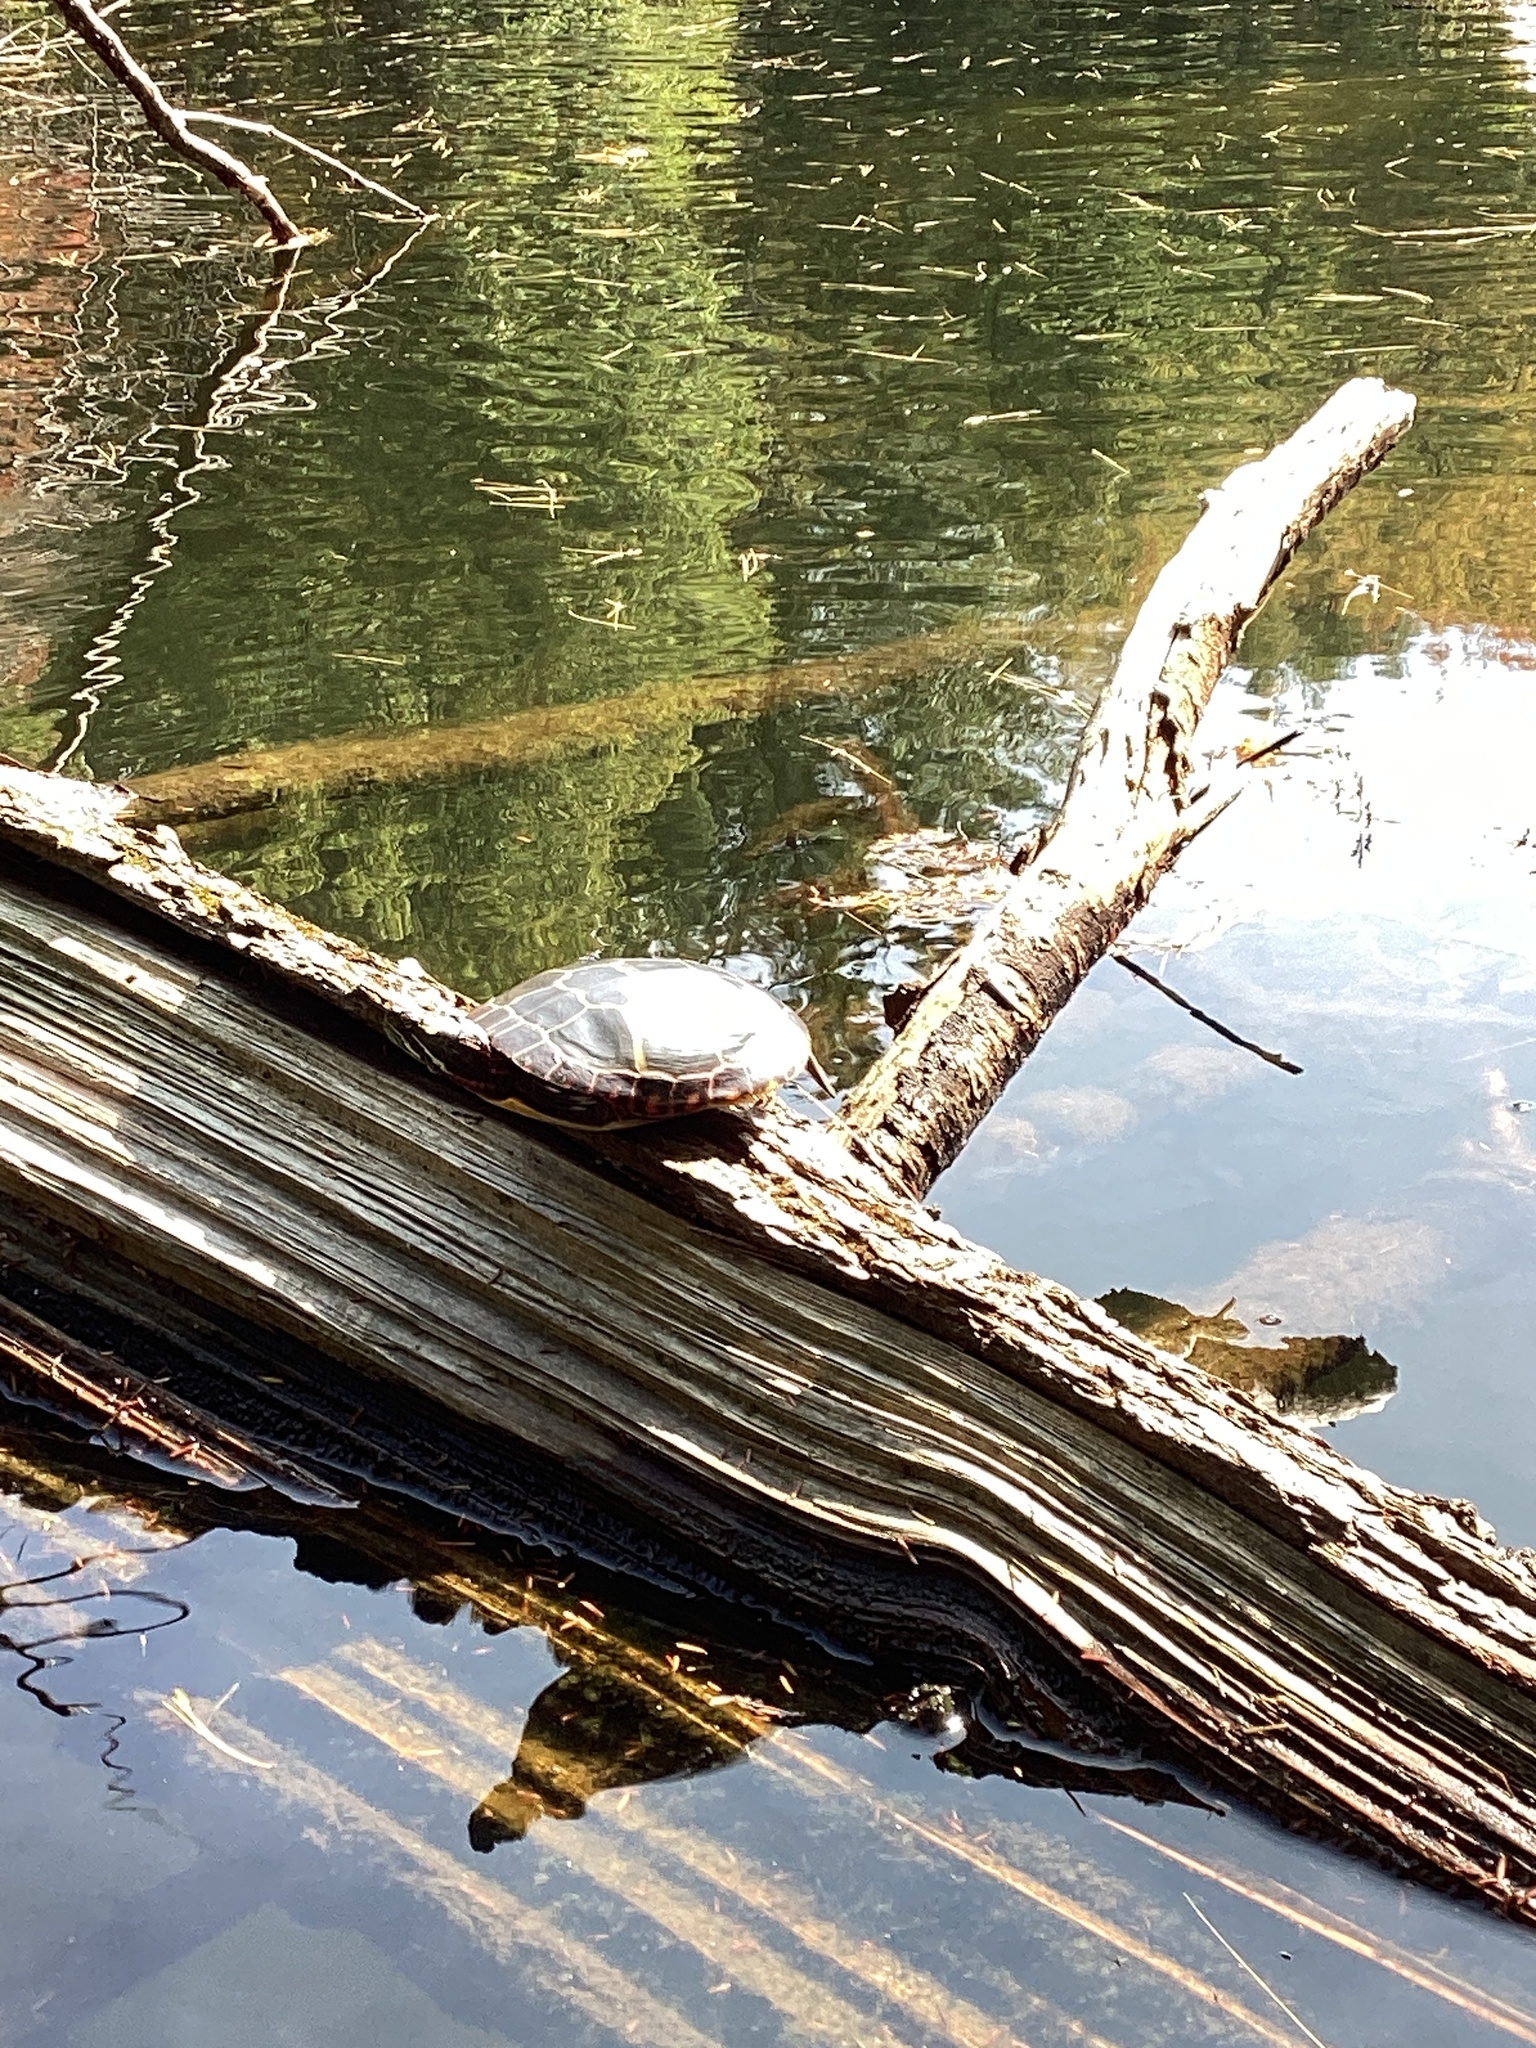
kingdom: Animalia
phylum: Chordata
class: Testudines
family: Emydidae
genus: Chrysemys
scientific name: Chrysemys picta
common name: Painted turtle
